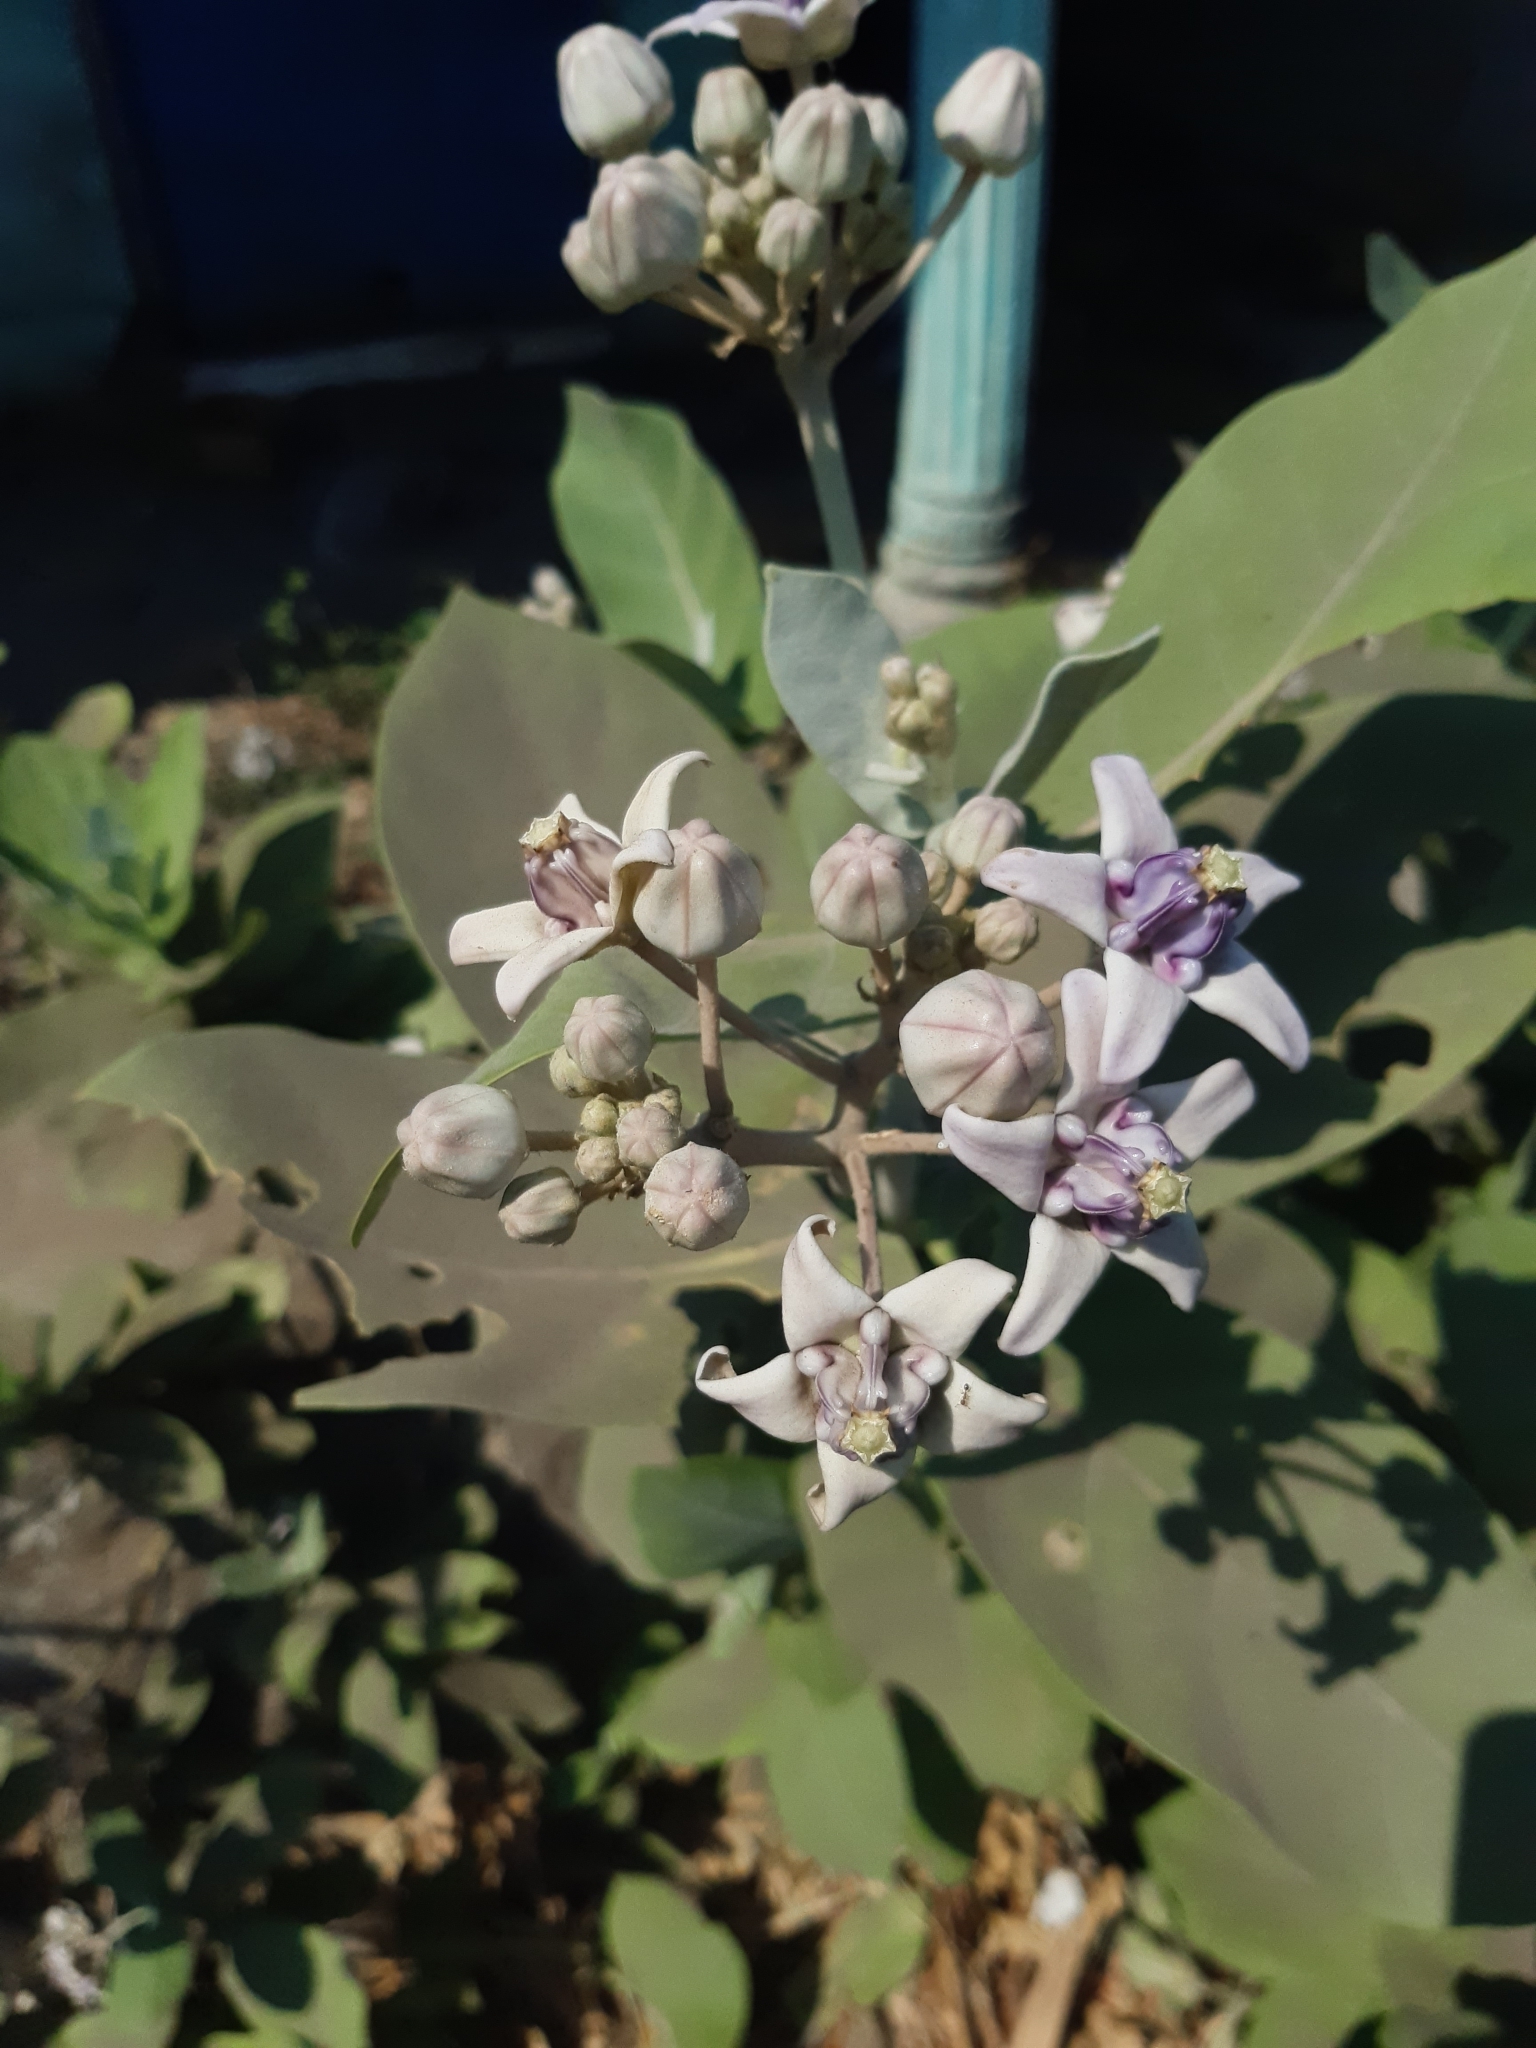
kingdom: Plantae
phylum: Tracheophyta
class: Magnoliopsida
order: Gentianales
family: Apocynaceae
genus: Calotropis
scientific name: Calotropis gigantea
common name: Crown flower
